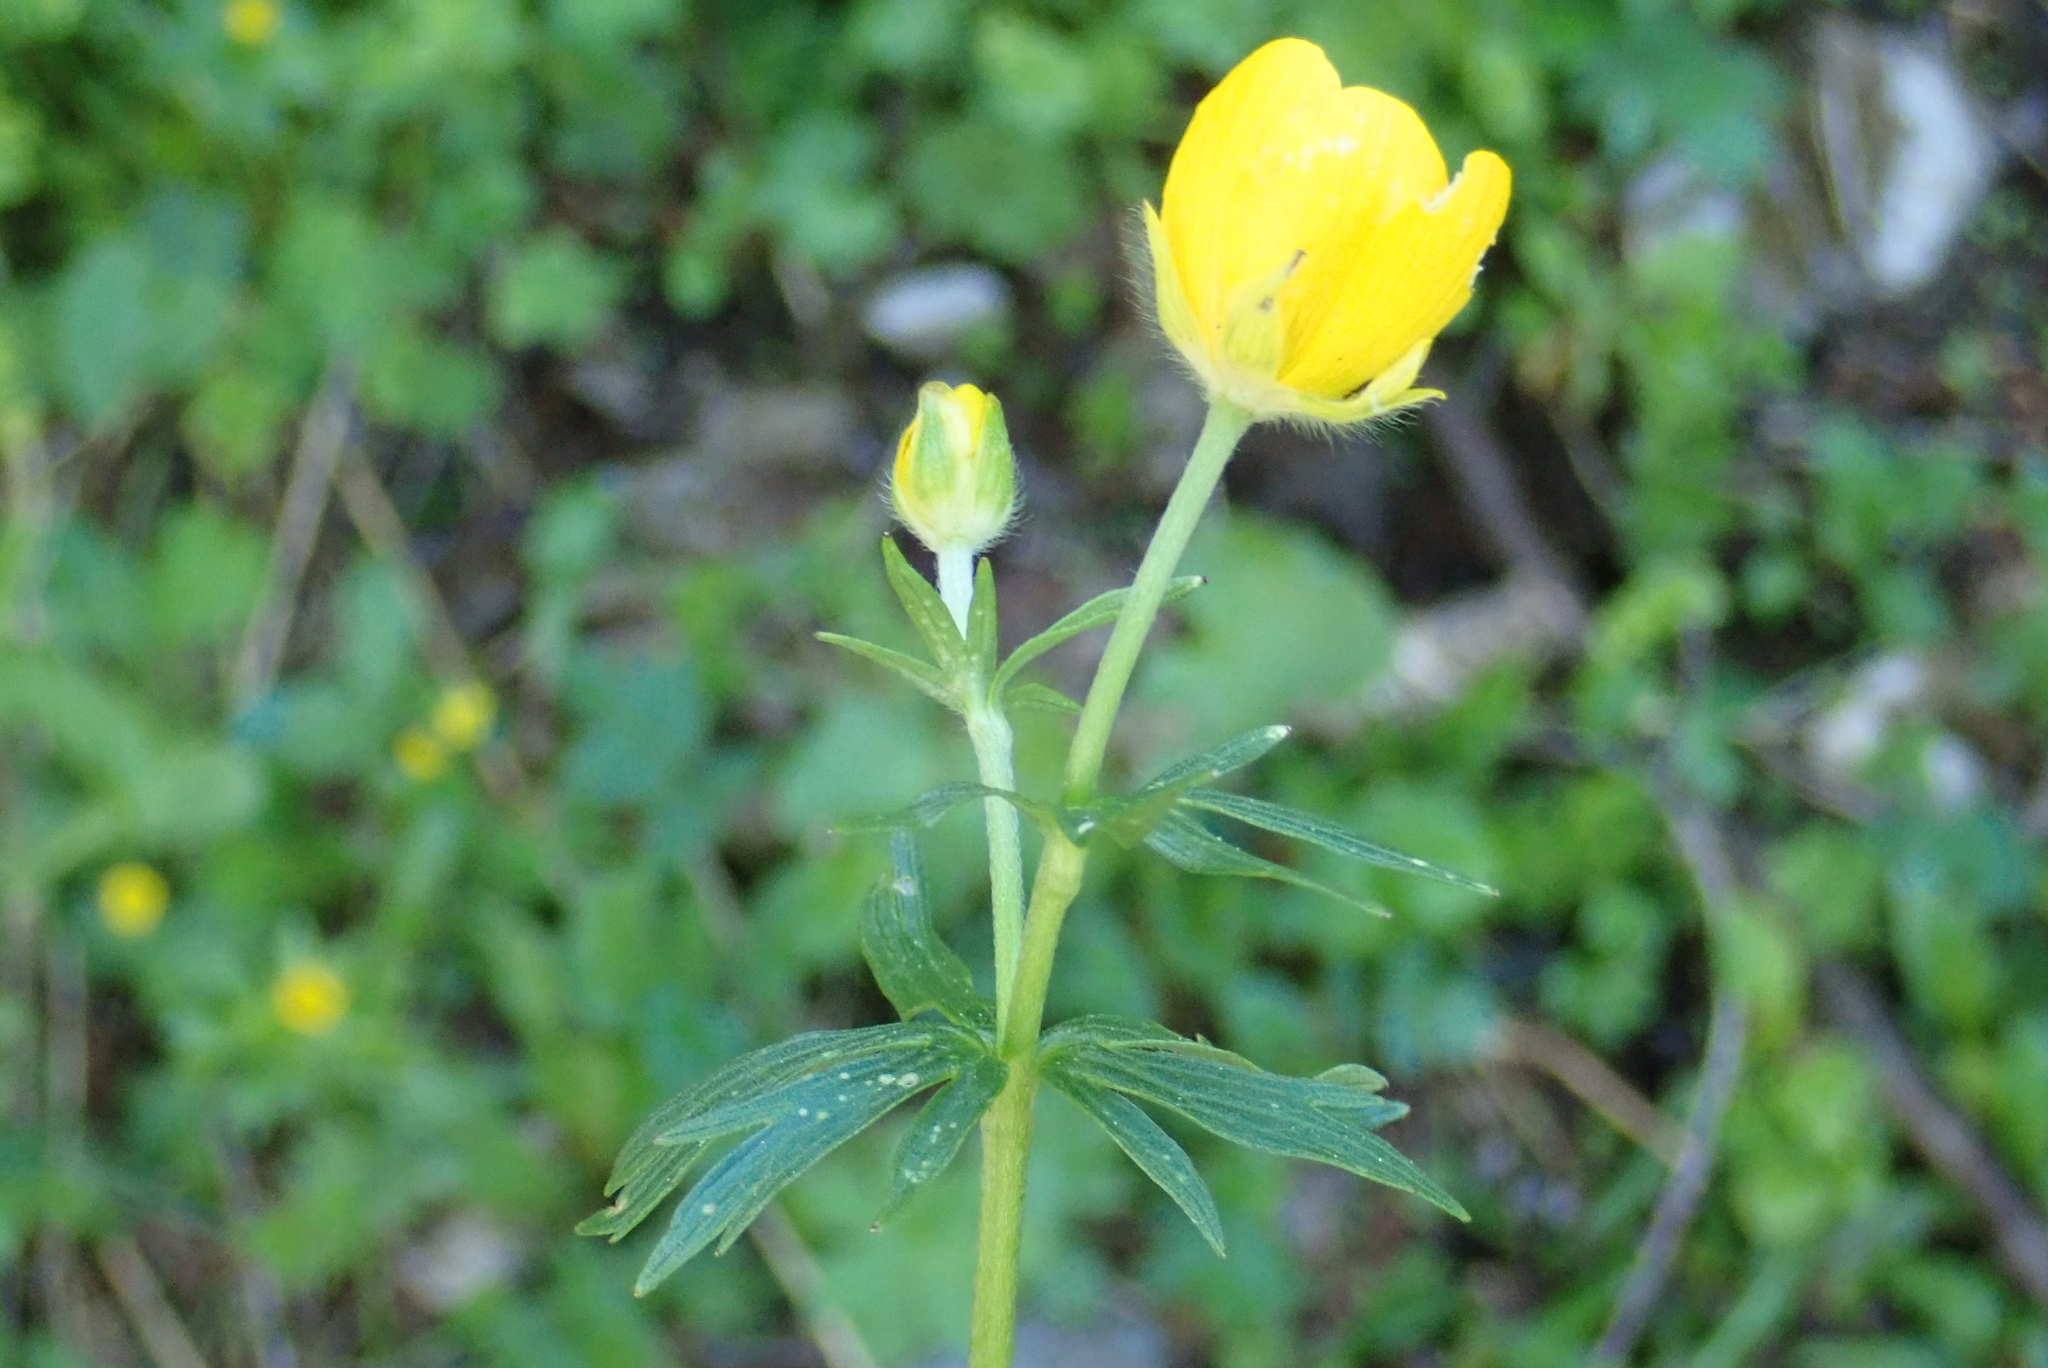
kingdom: Plantae
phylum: Tracheophyta
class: Magnoliopsida
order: Ranunculales
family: Ranunculaceae
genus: Ranunculus
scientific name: Ranunculus montanus
